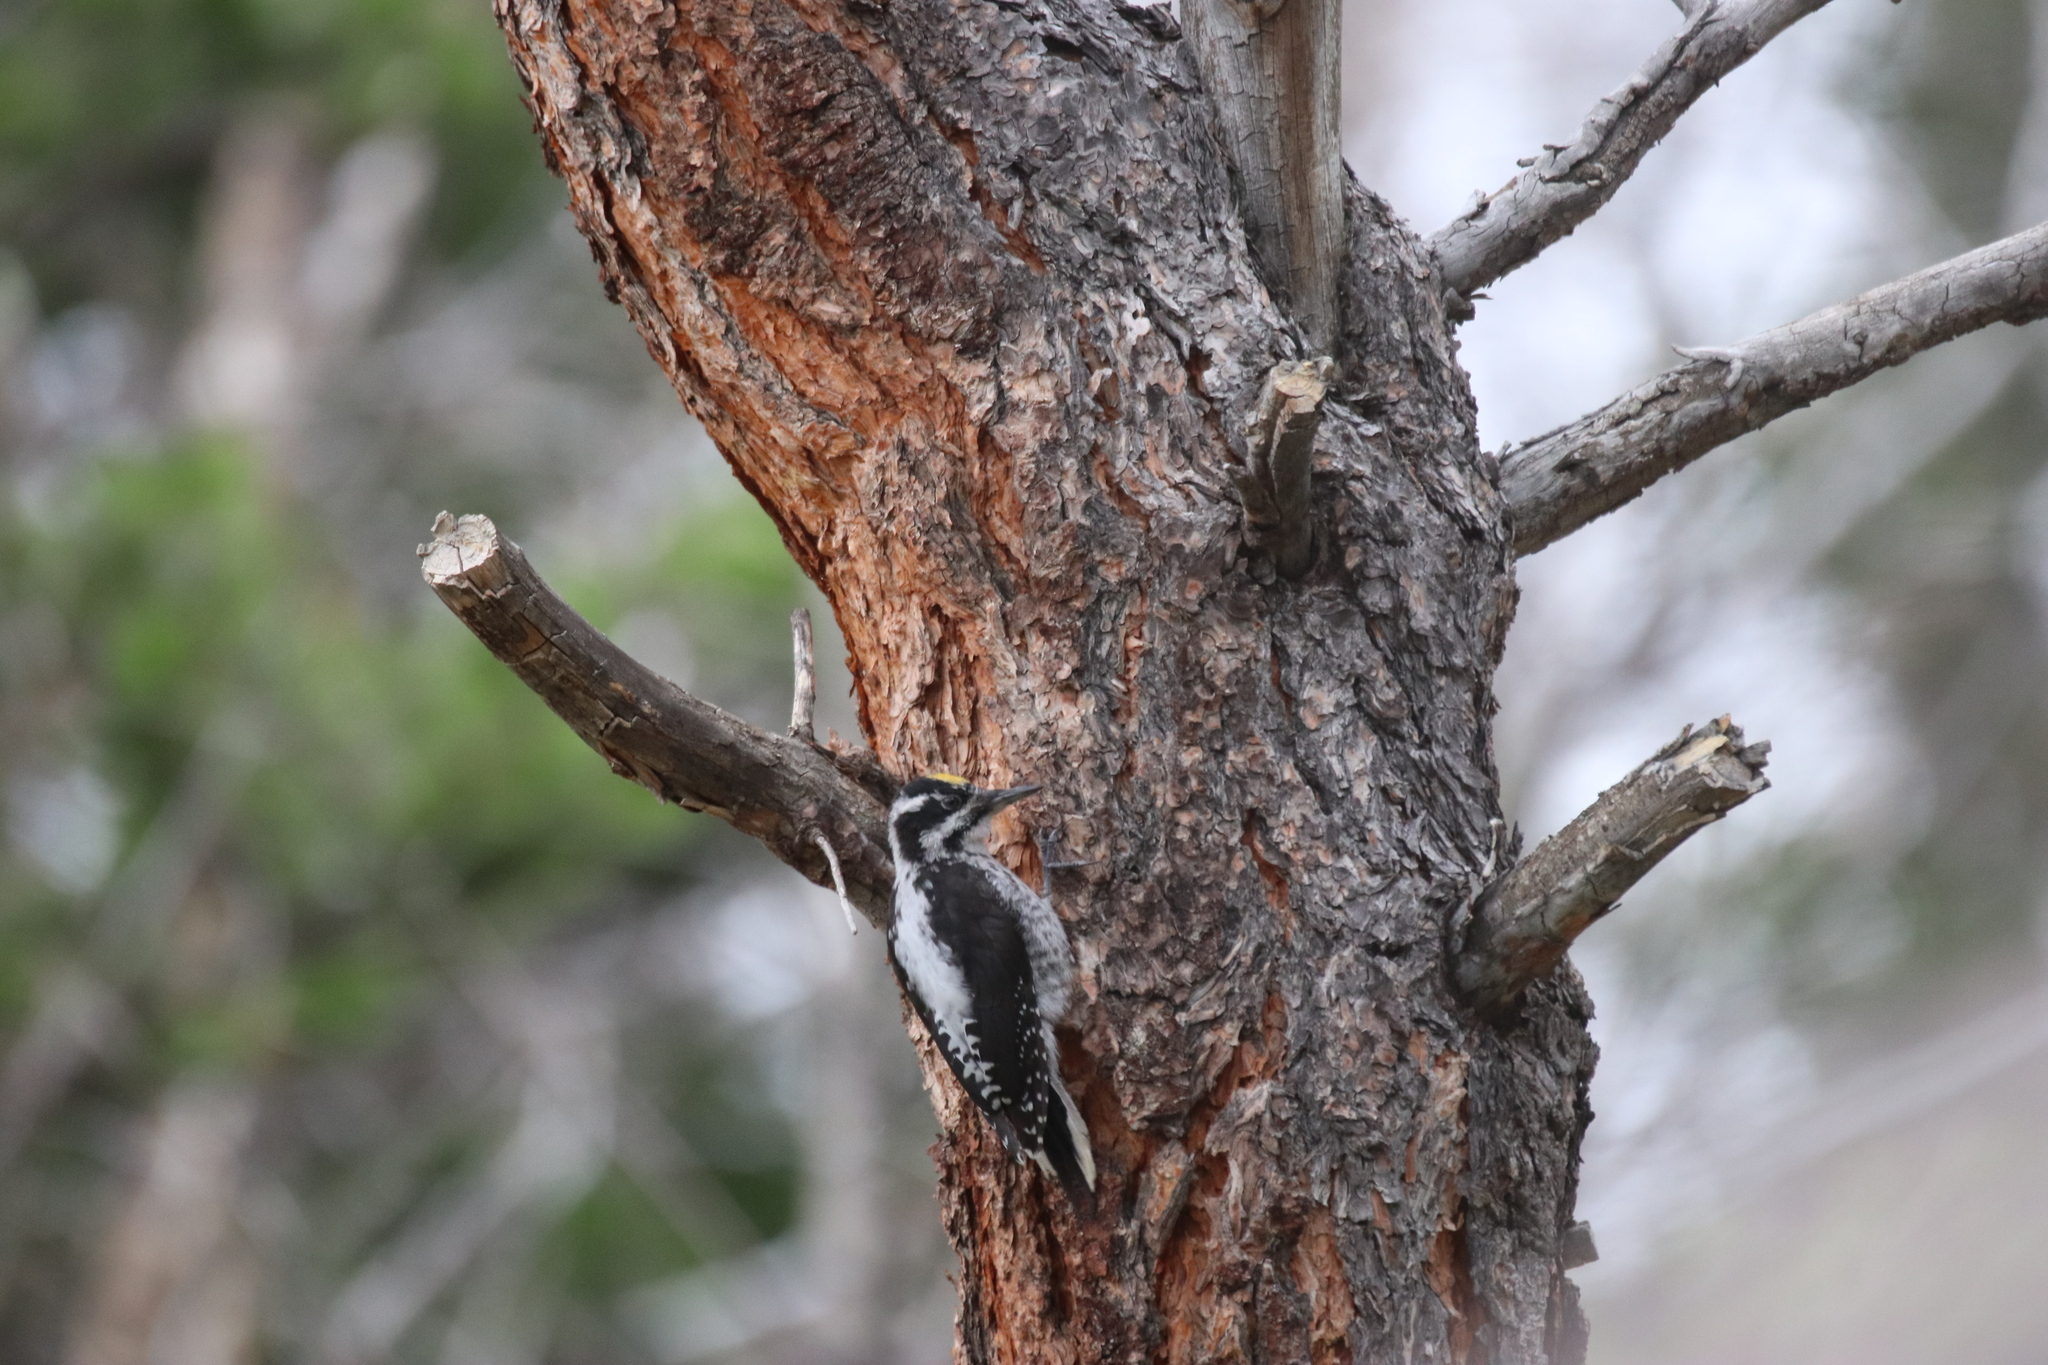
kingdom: Animalia
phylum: Chordata
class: Aves
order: Piciformes
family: Picidae
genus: Picoides
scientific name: Picoides dorsalis
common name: American three-toed woodpecker
